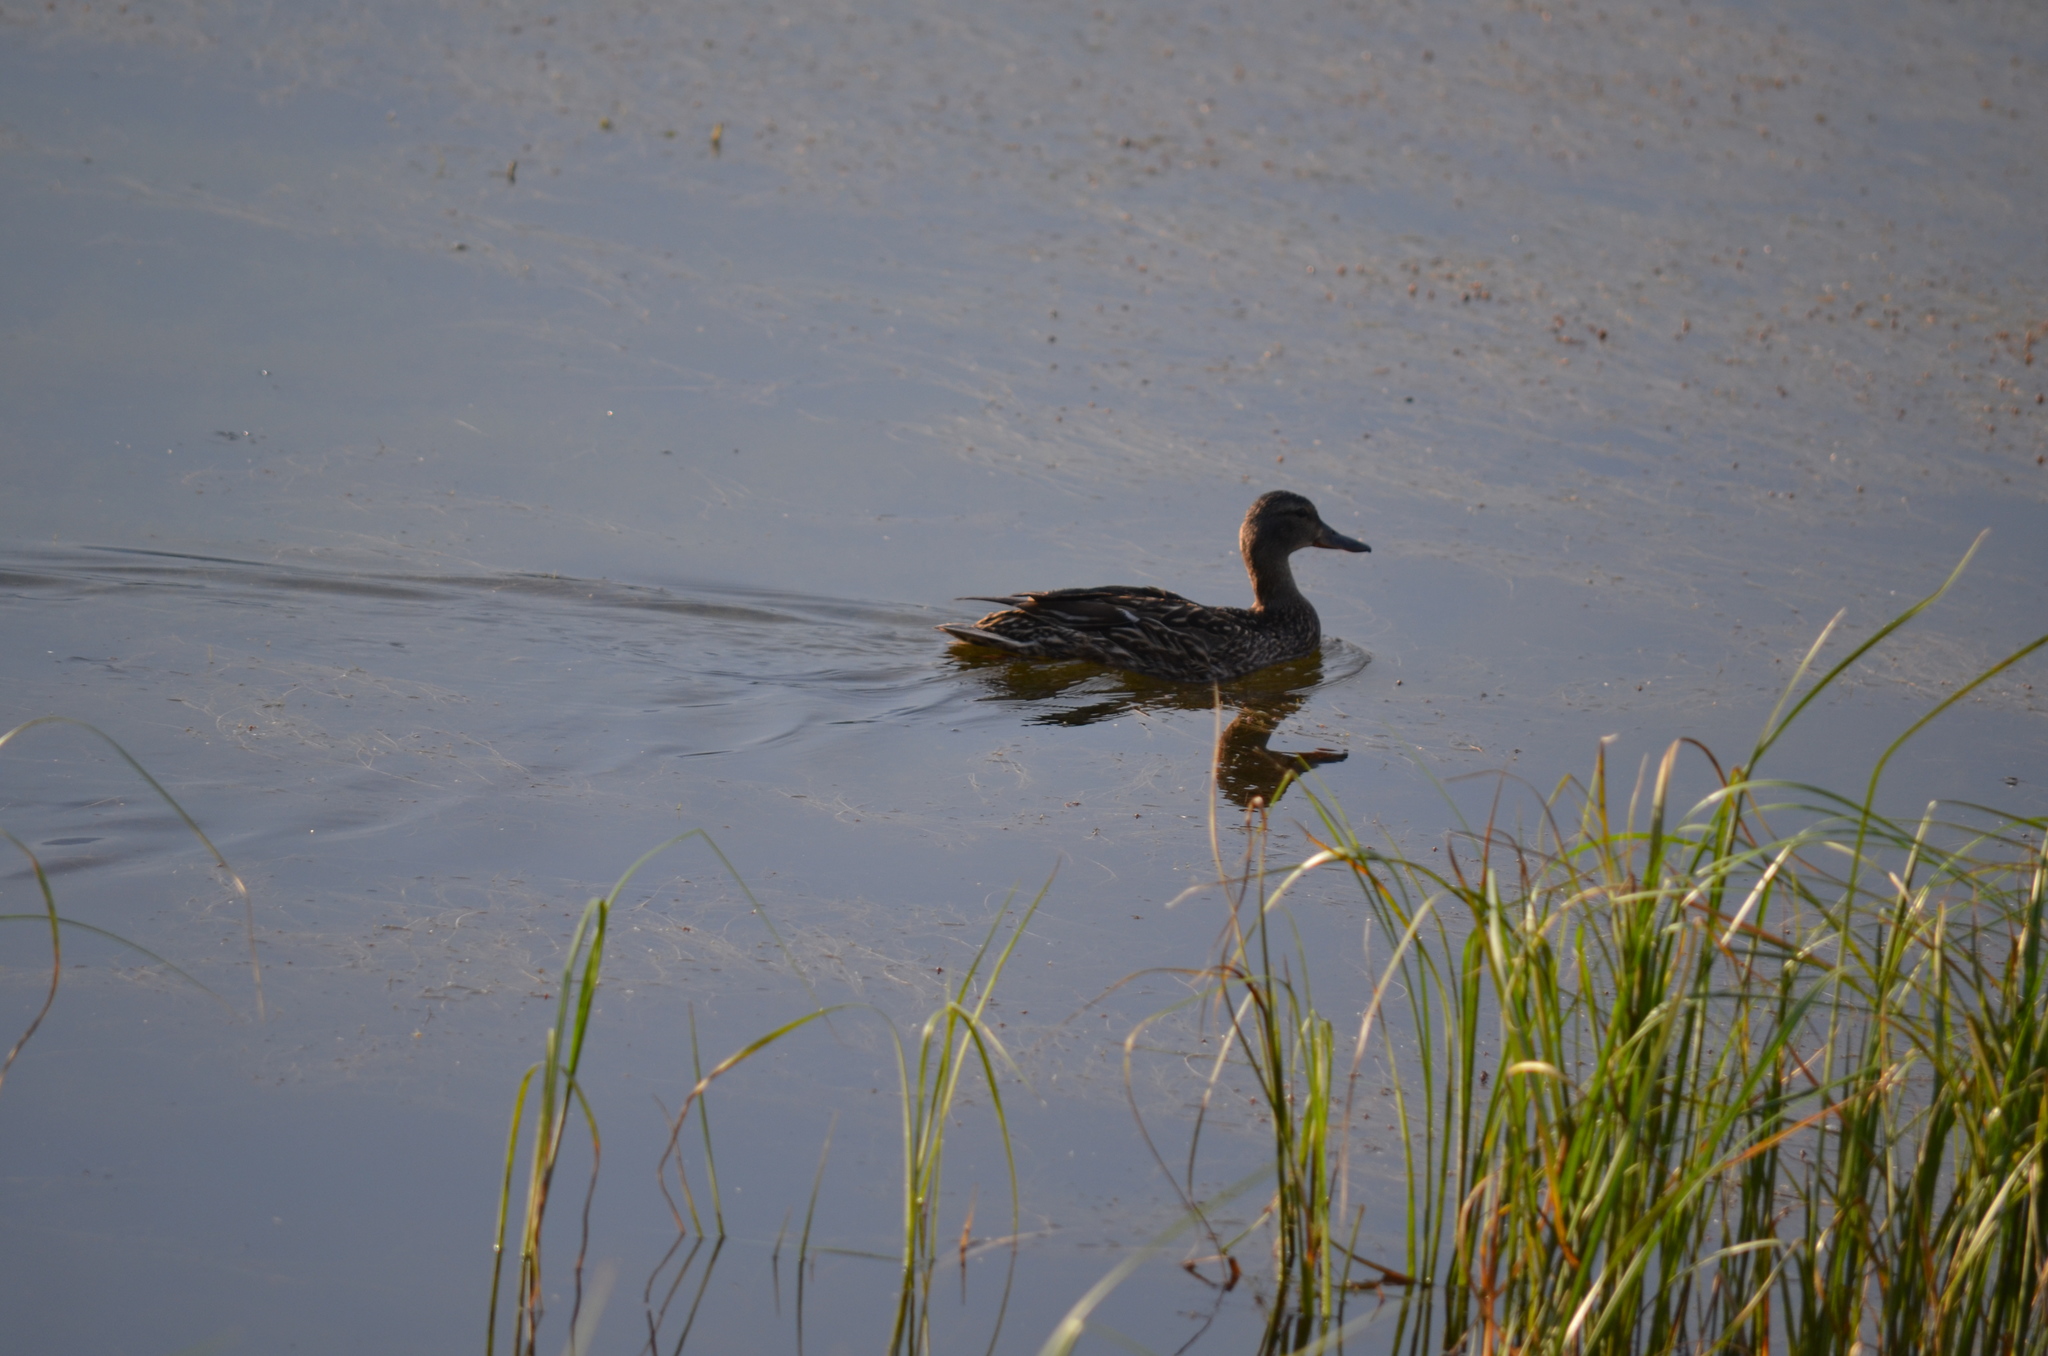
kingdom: Animalia
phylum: Chordata
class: Aves
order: Anseriformes
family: Anatidae
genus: Anas
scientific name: Anas platyrhynchos
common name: Mallard
